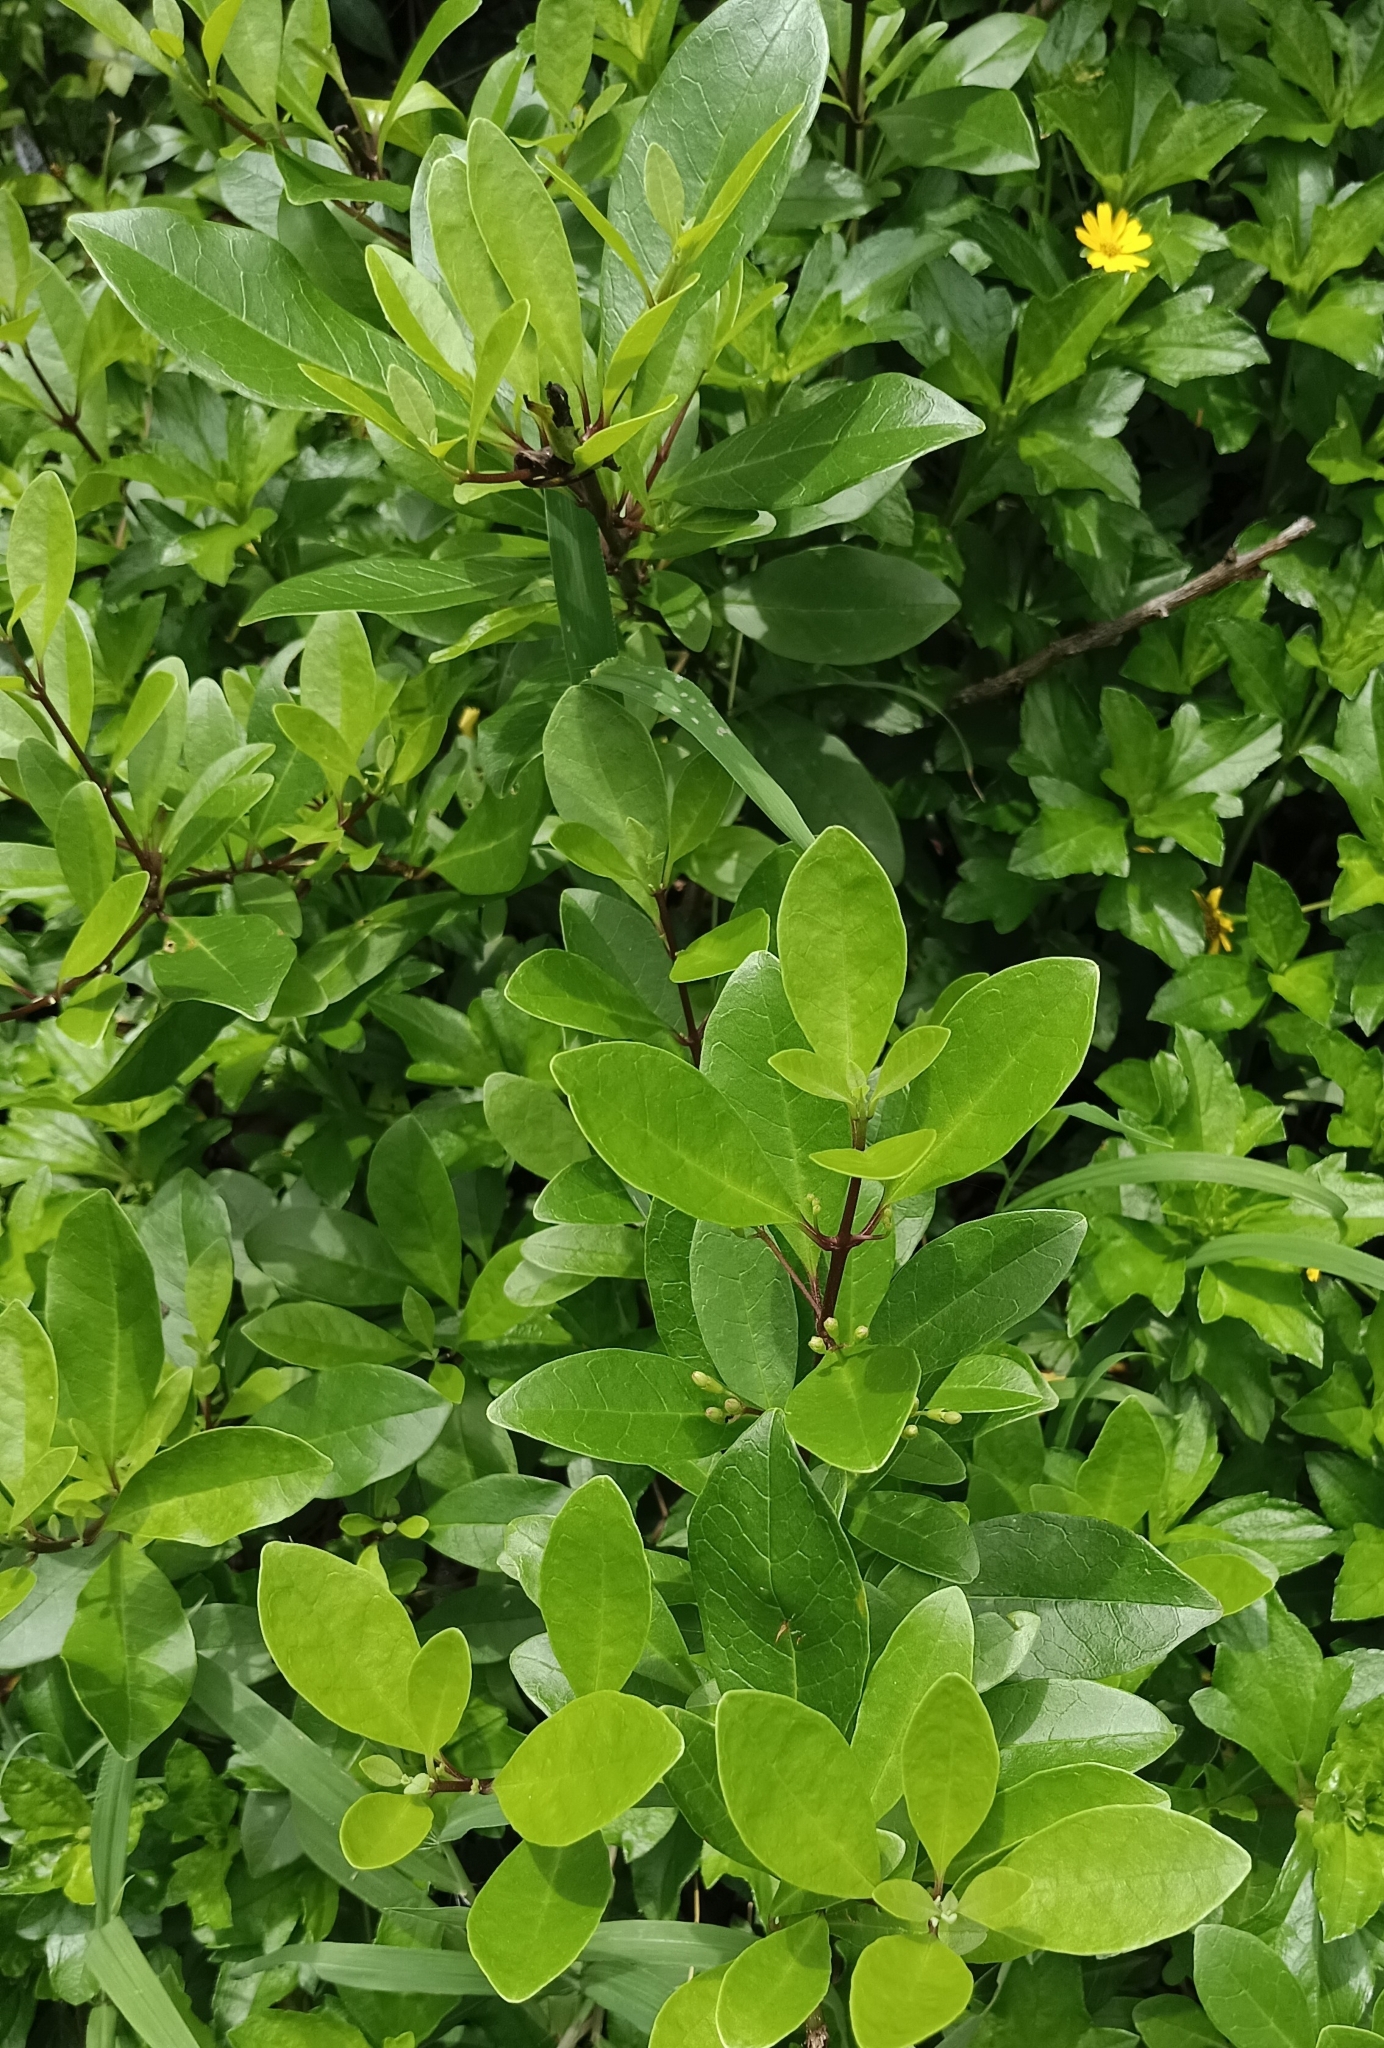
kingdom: Plantae
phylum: Tracheophyta
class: Magnoliopsida
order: Lamiales
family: Lamiaceae
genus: Volkameria
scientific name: Volkameria inermis
